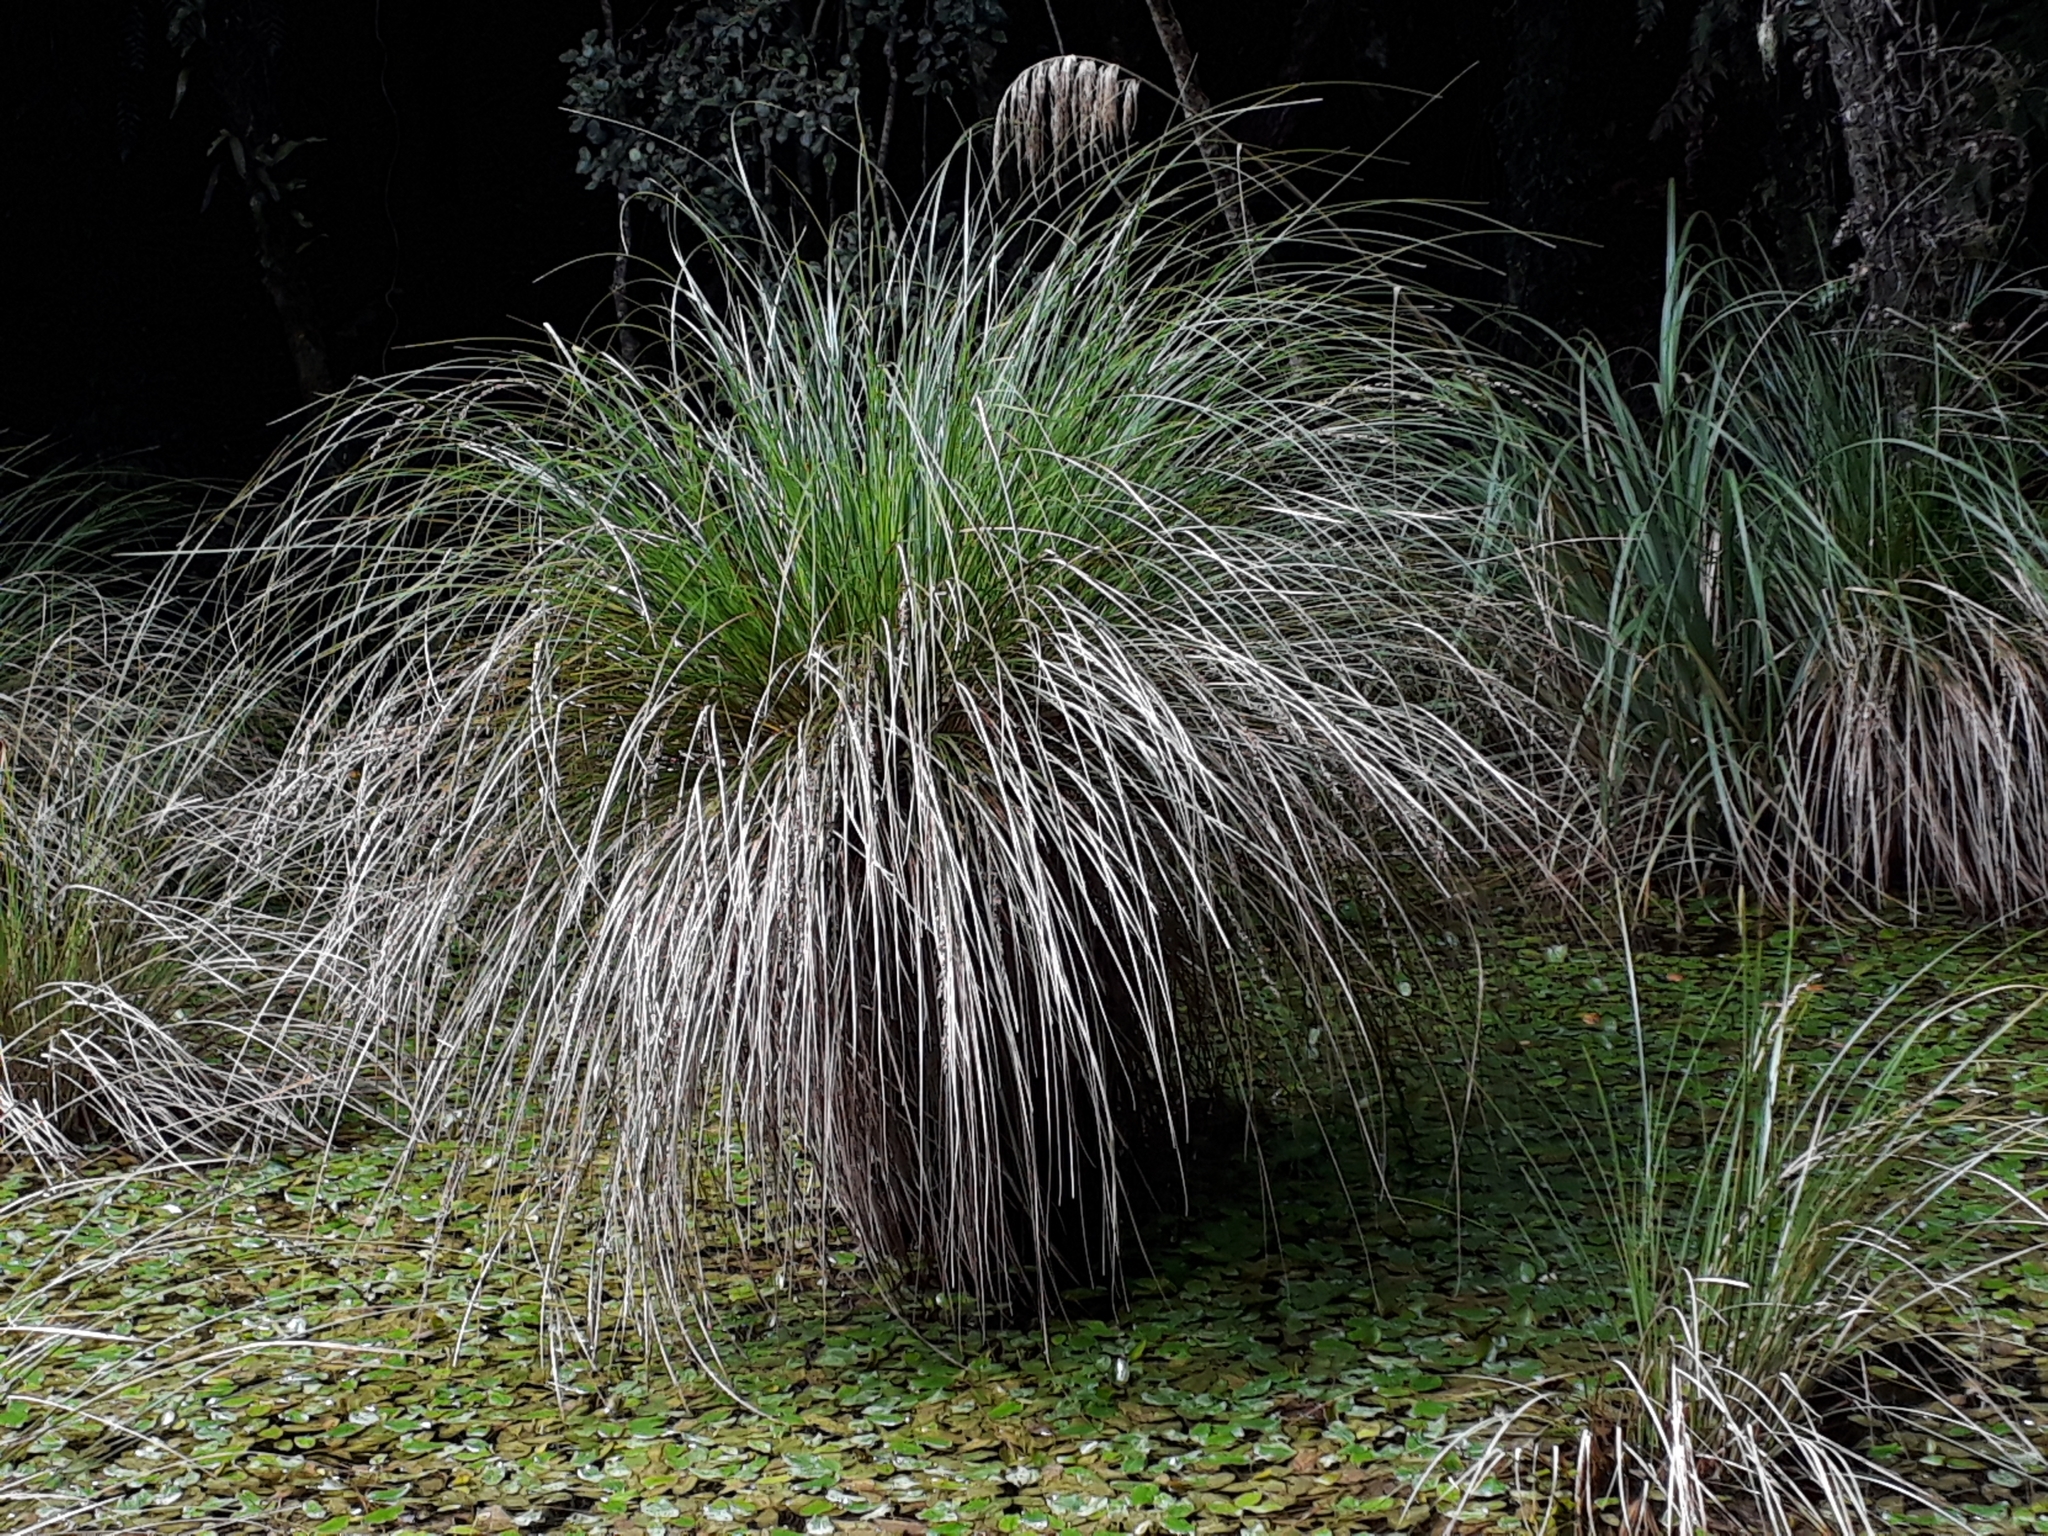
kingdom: Plantae
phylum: Tracheophyta
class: Liliopsida
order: Poales
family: Cyperaceae
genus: Carex
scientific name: Carex secta
